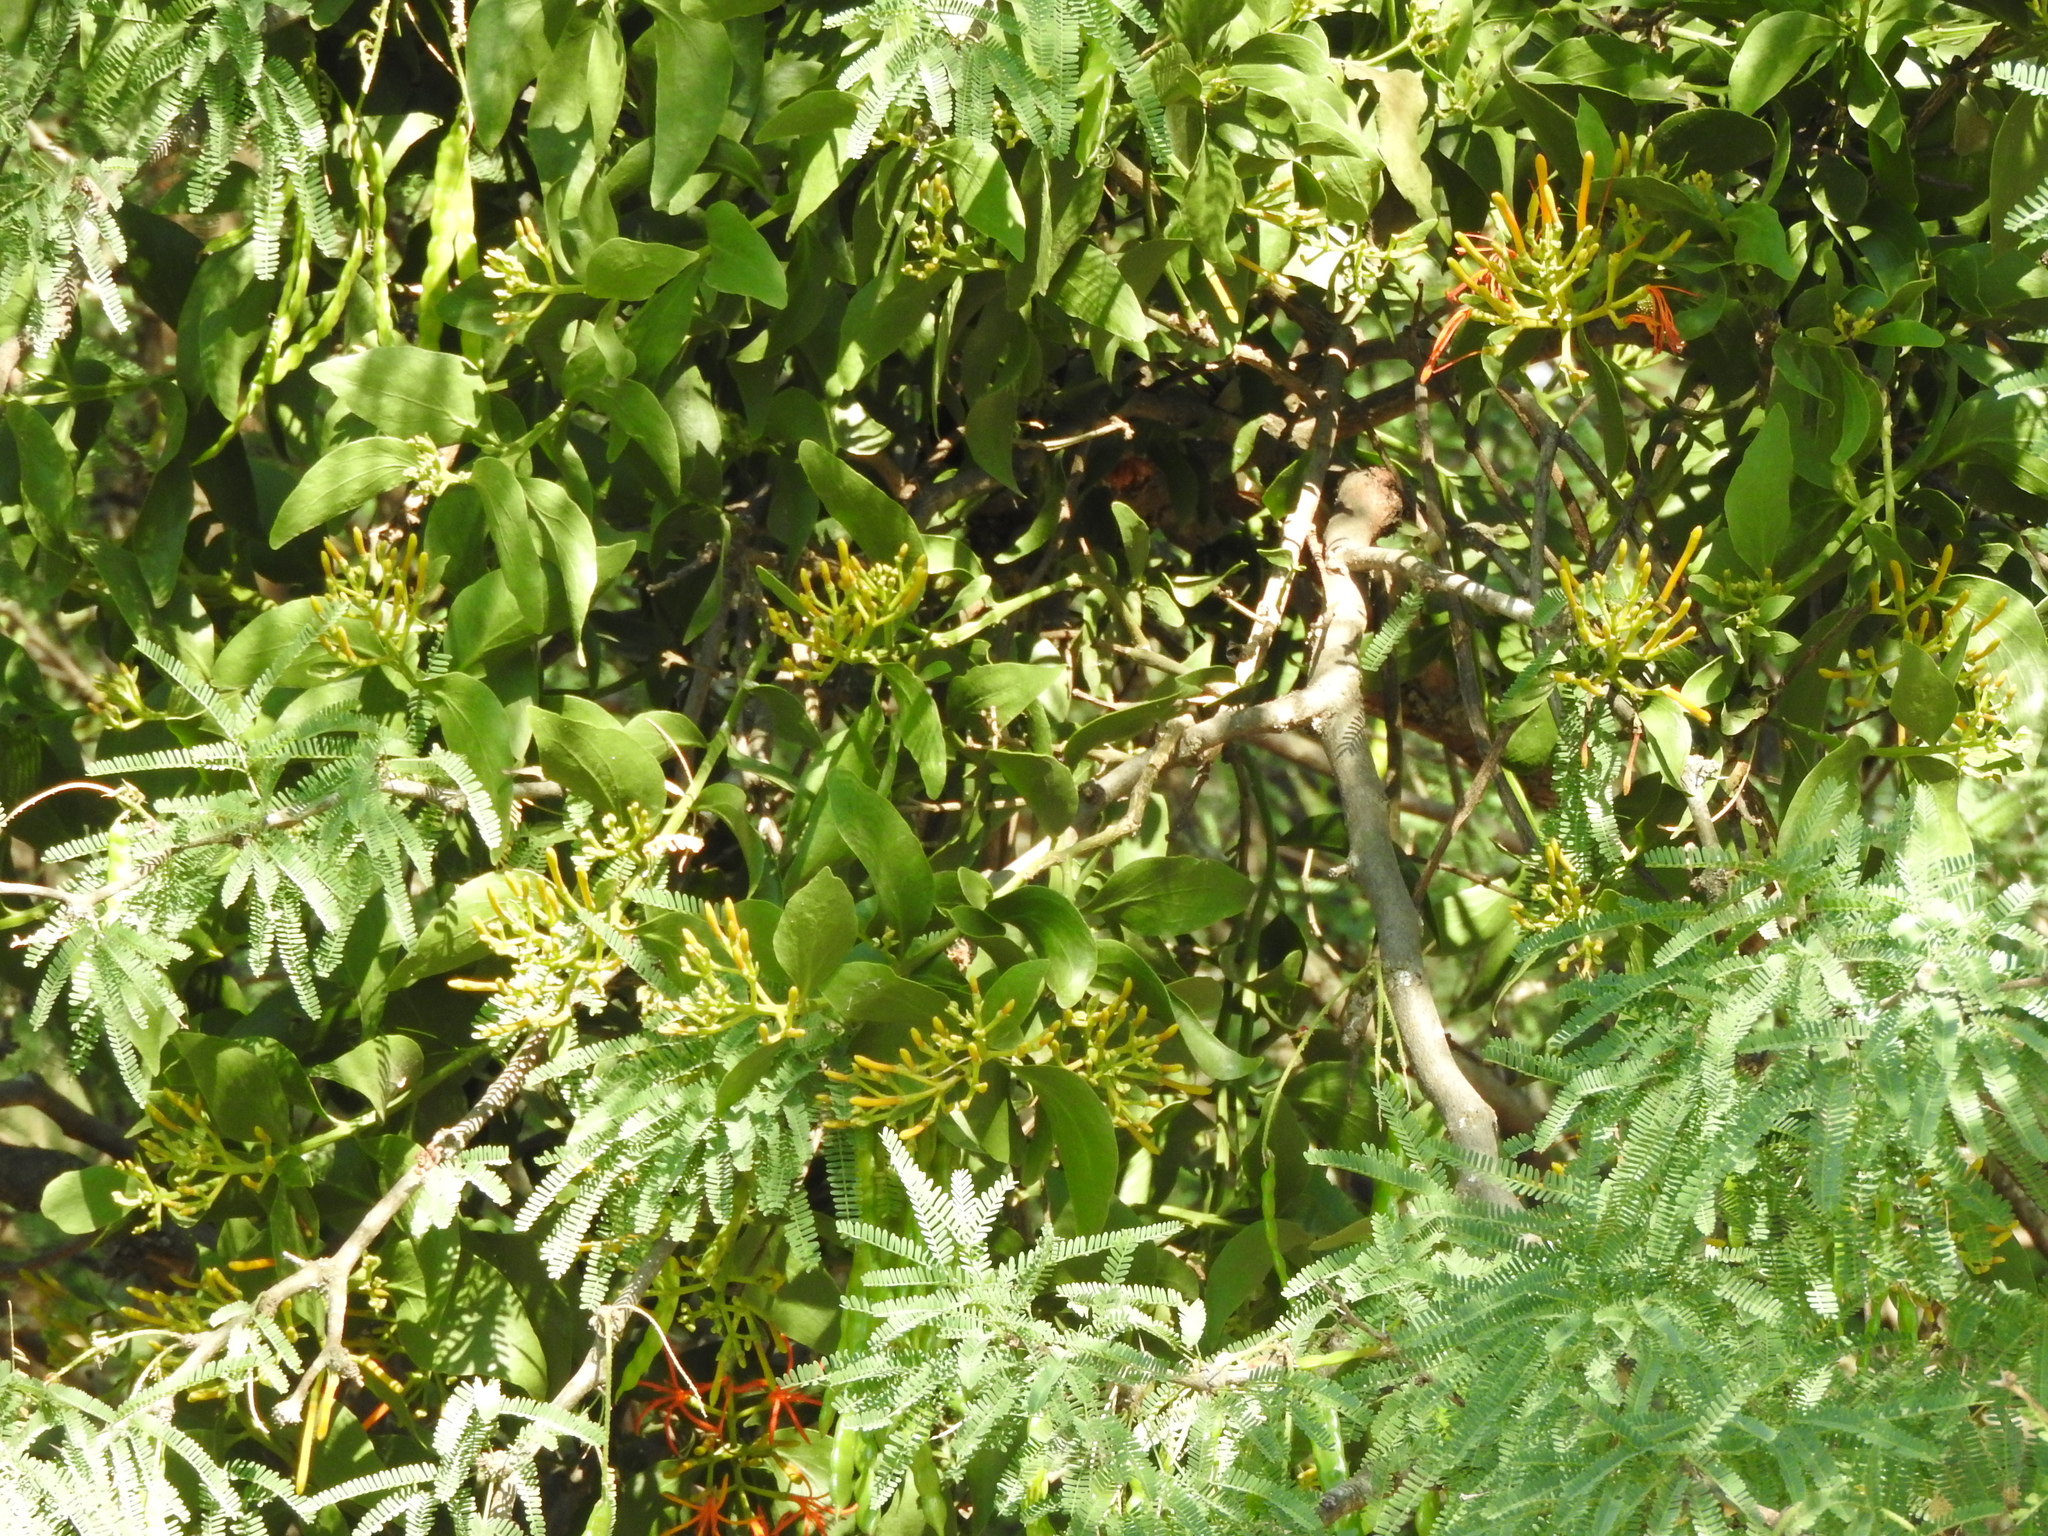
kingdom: Plantae
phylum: Tracheophyta
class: Magnoliopsida
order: Santalales
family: Loranthaceae
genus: Psittacanthus
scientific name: Psittacanthus calyculatus
